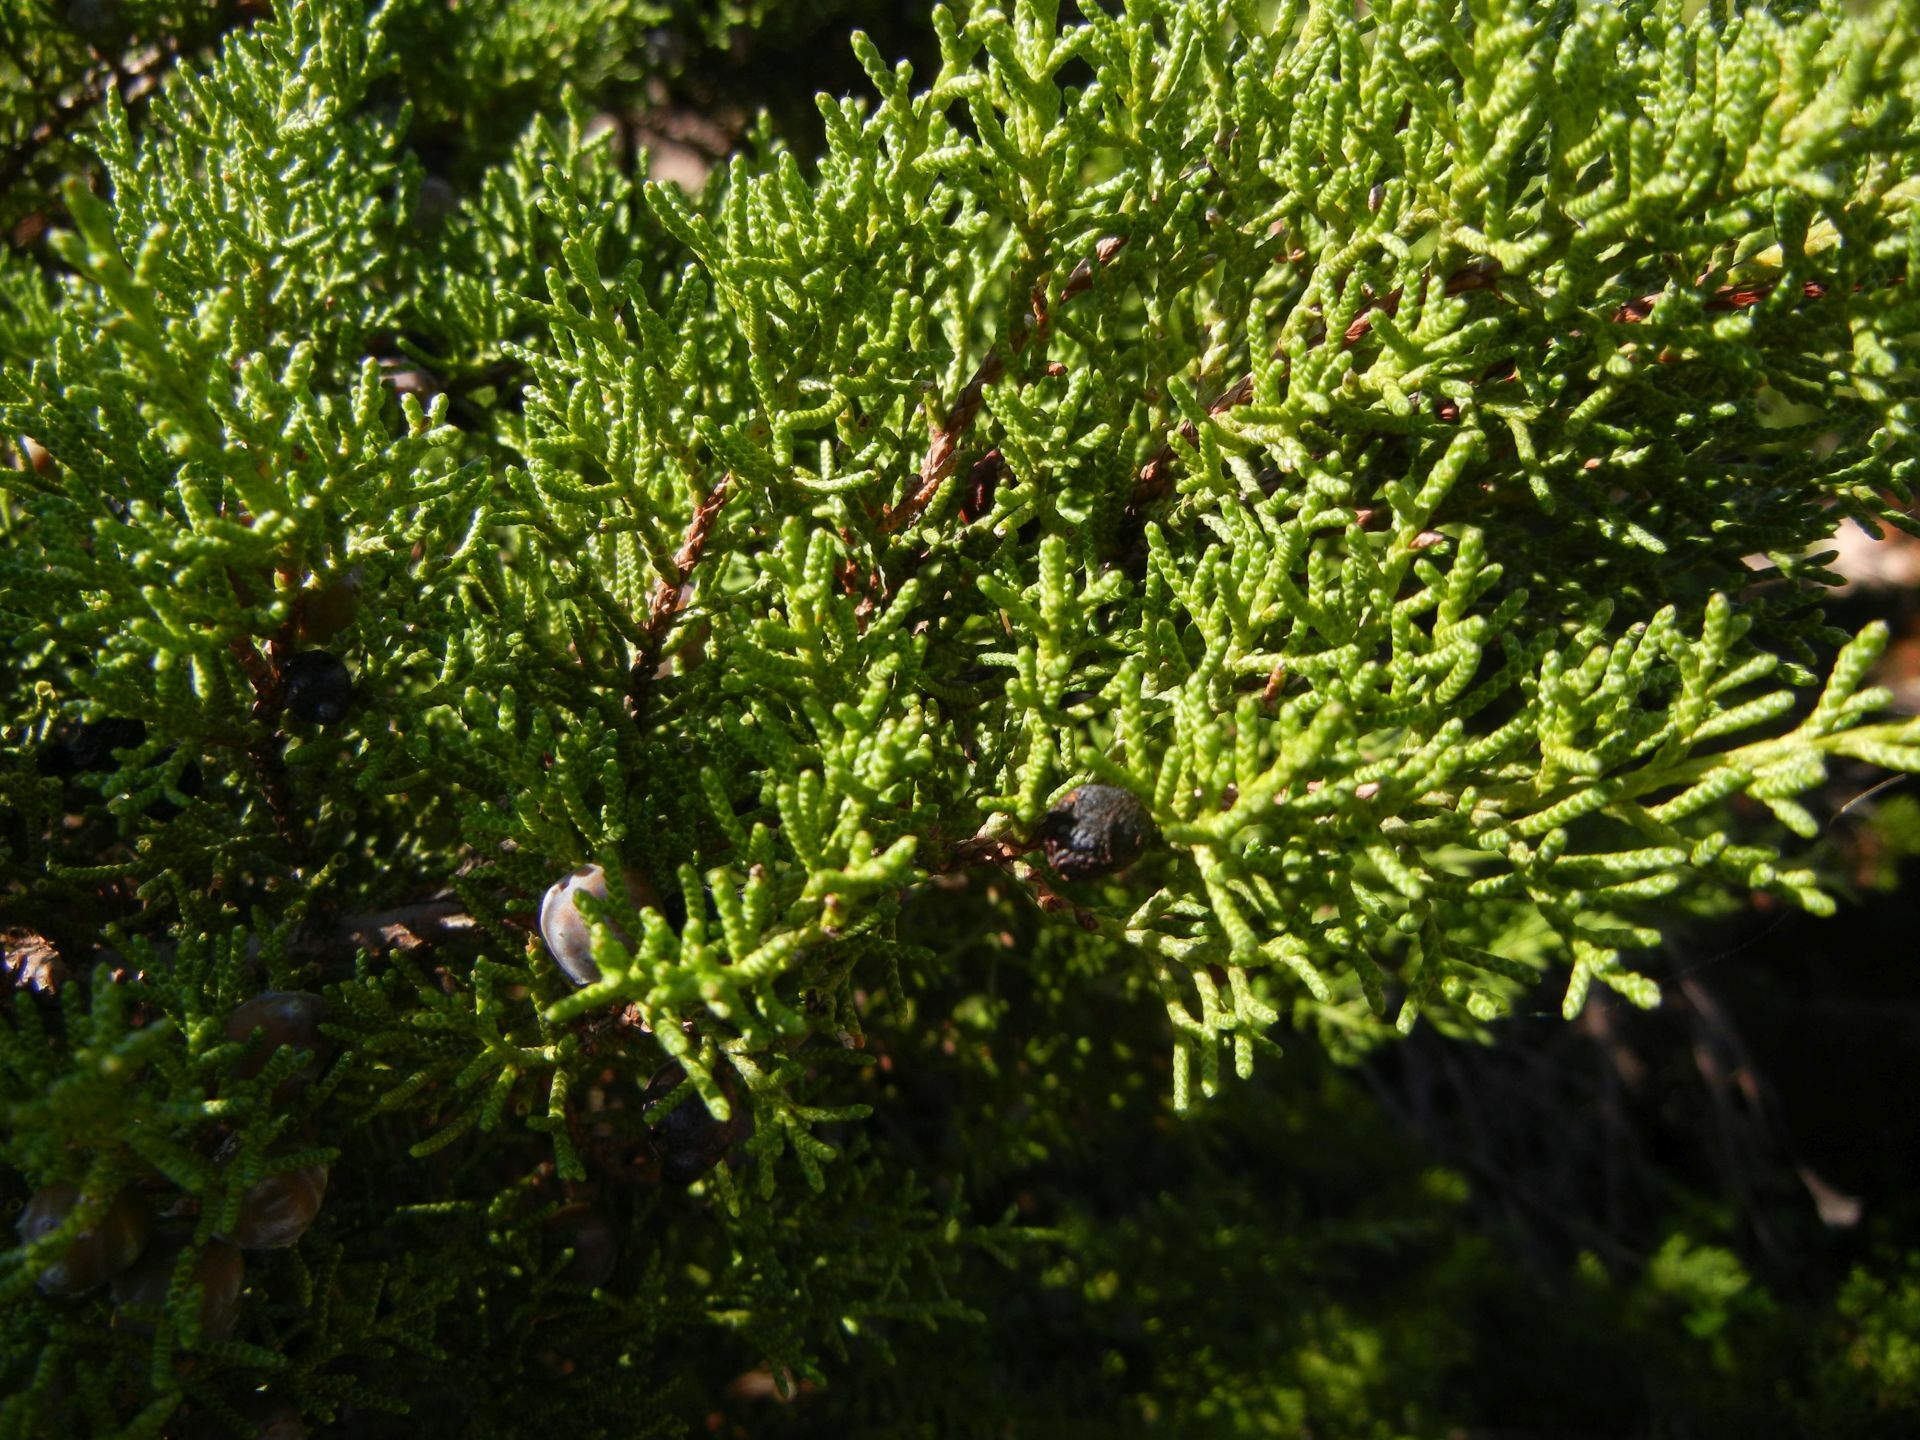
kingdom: Plantae
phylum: Tracheophyta
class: Pinopsida
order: Pinales
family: Cupressaceae
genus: Juniperus
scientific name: Juniperus phoenicea
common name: Phoenician juniper
